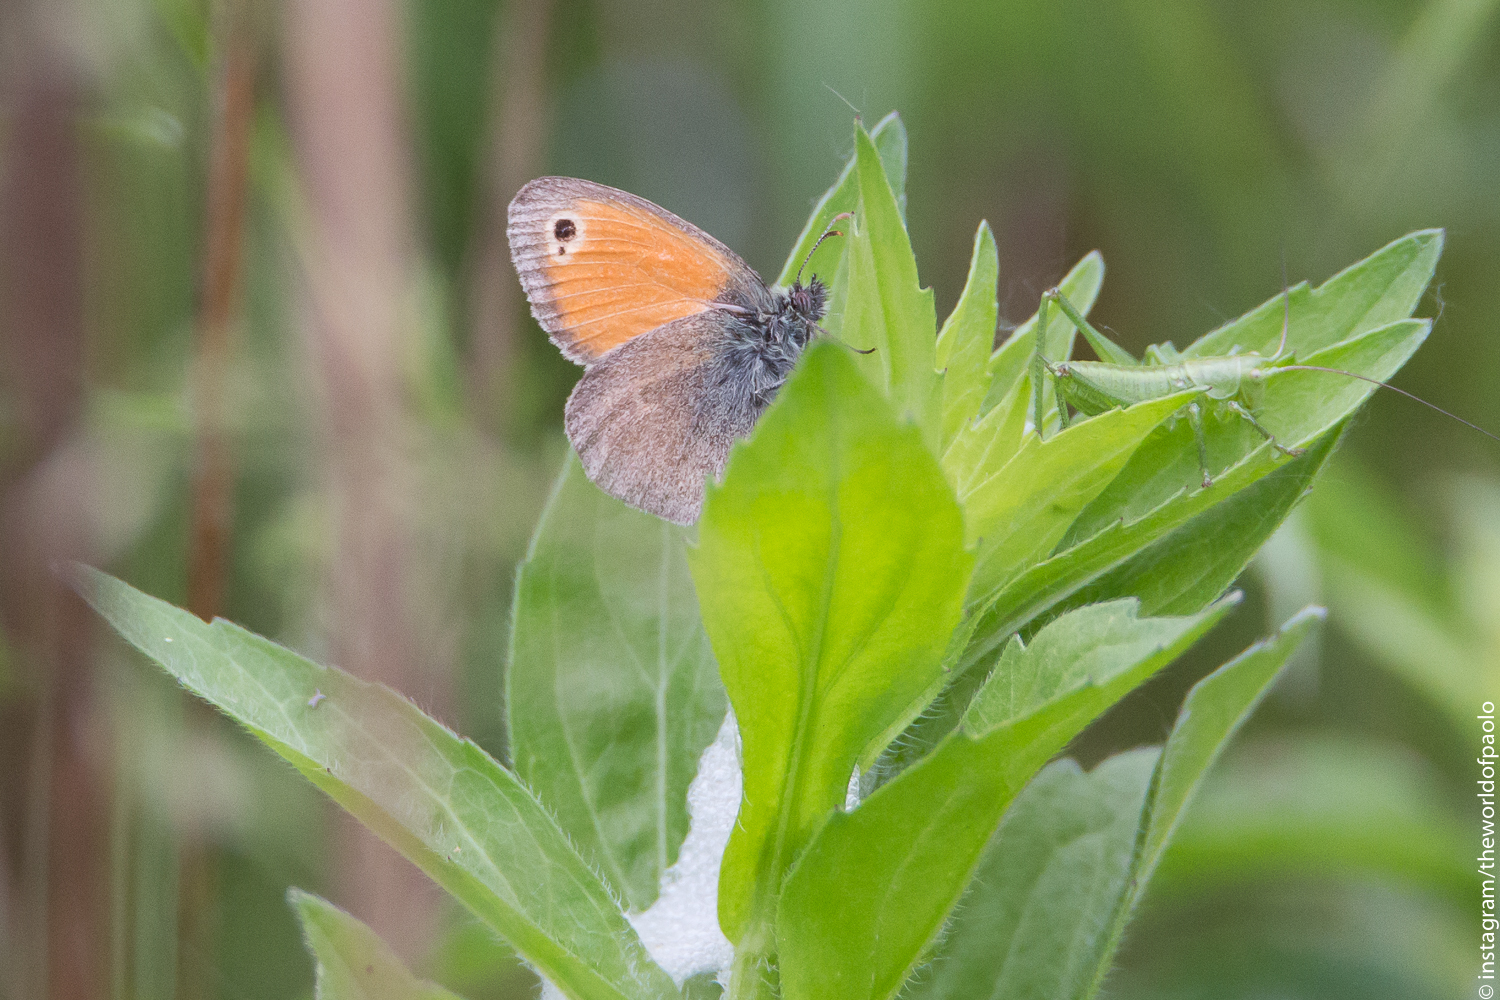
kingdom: Animalia
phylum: Arthropoda
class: Insecta
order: Lepidoptera
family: Nymphalidae
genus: Coenonympha
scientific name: Coenonympha pamphilus
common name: Small heath
